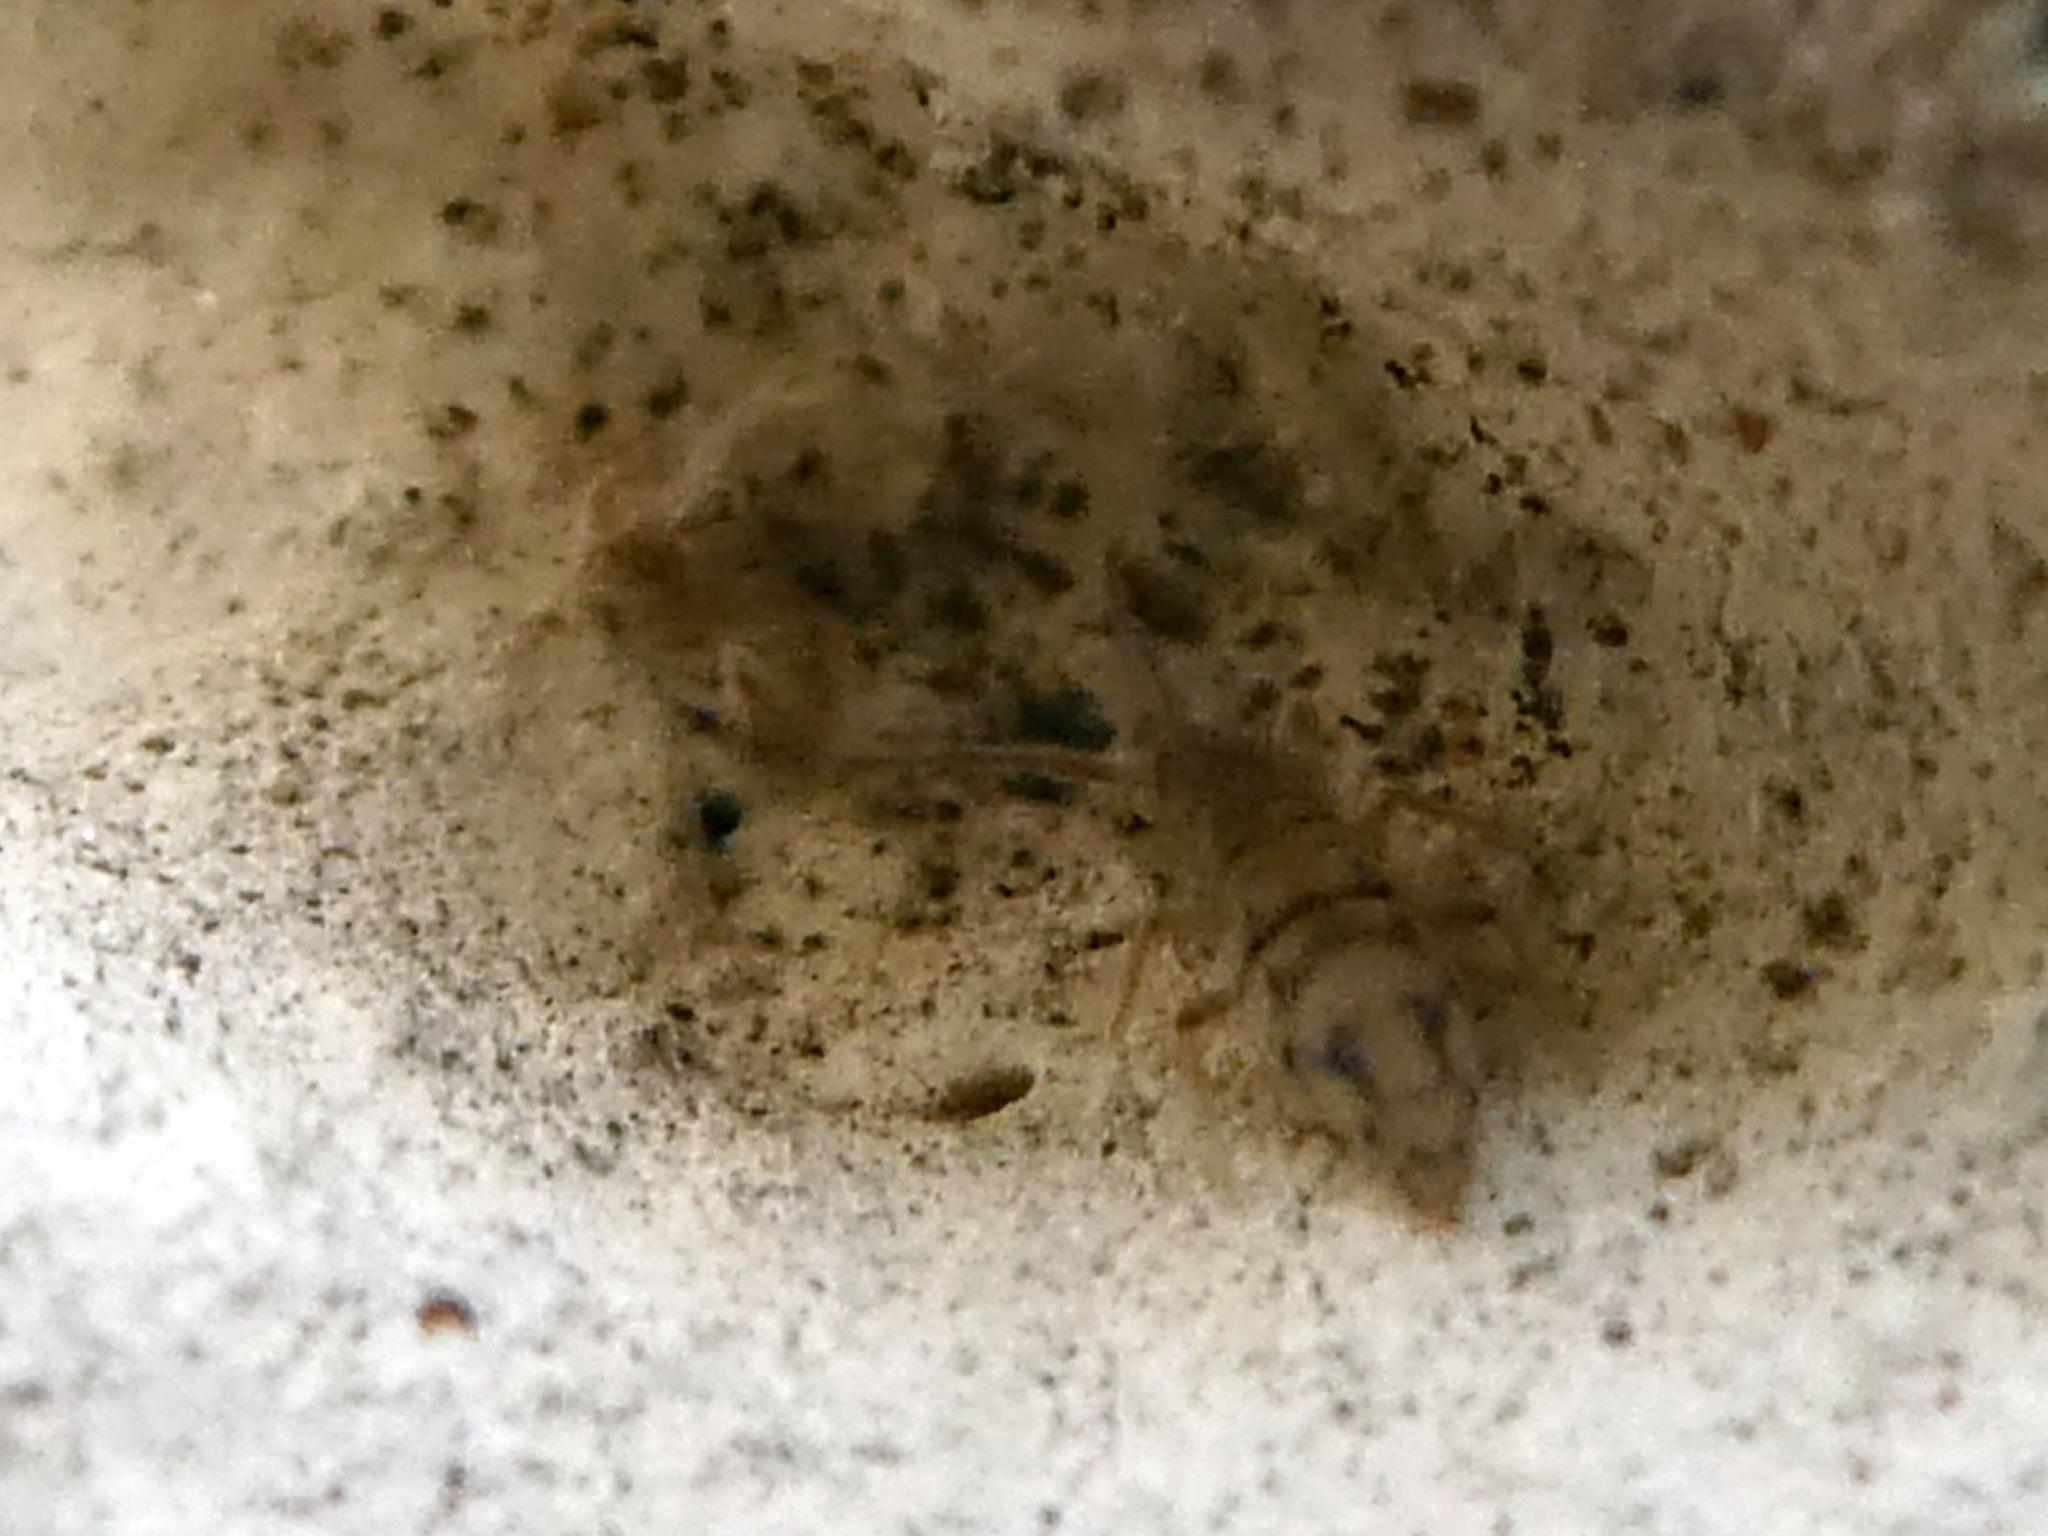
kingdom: Animalia
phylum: Arthropoda
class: Collembola
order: Entomobryomorpha
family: Entomobryidae
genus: Entomobrya
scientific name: Entomobrya nivalis
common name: Cosmopolitan springtail
